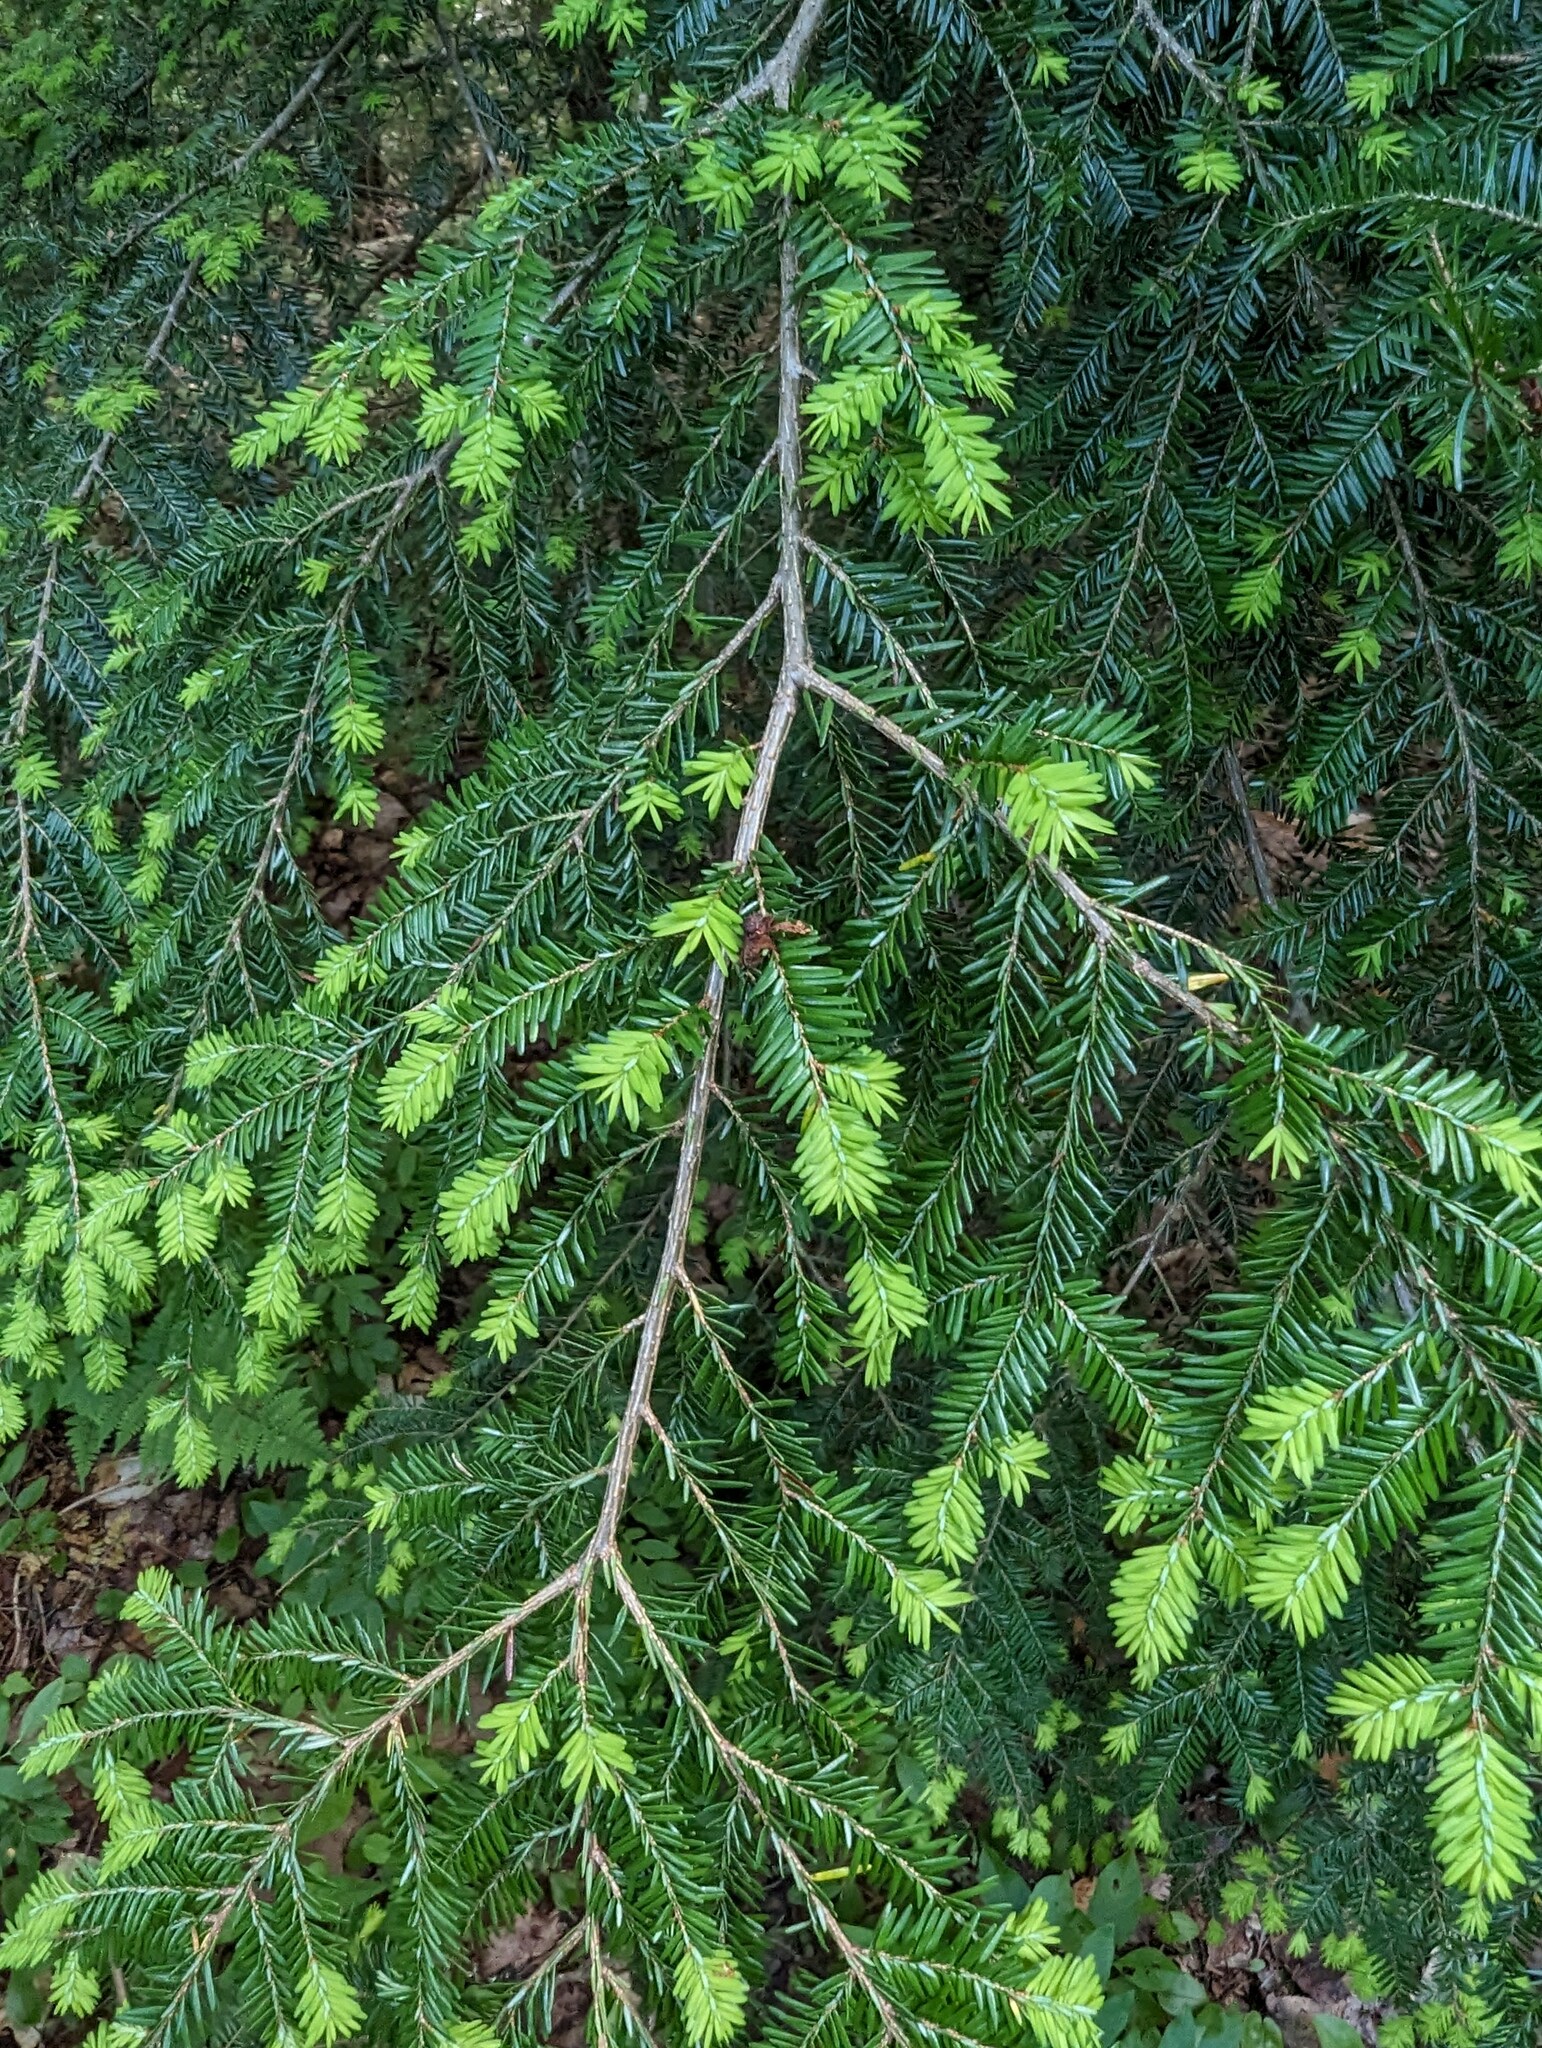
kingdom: Plantae
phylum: Tracheophyta
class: Pinopsida
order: Pinales
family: Pinaceae
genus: Tsuga
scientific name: Tsuga canadensis
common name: Eastern hemlock
